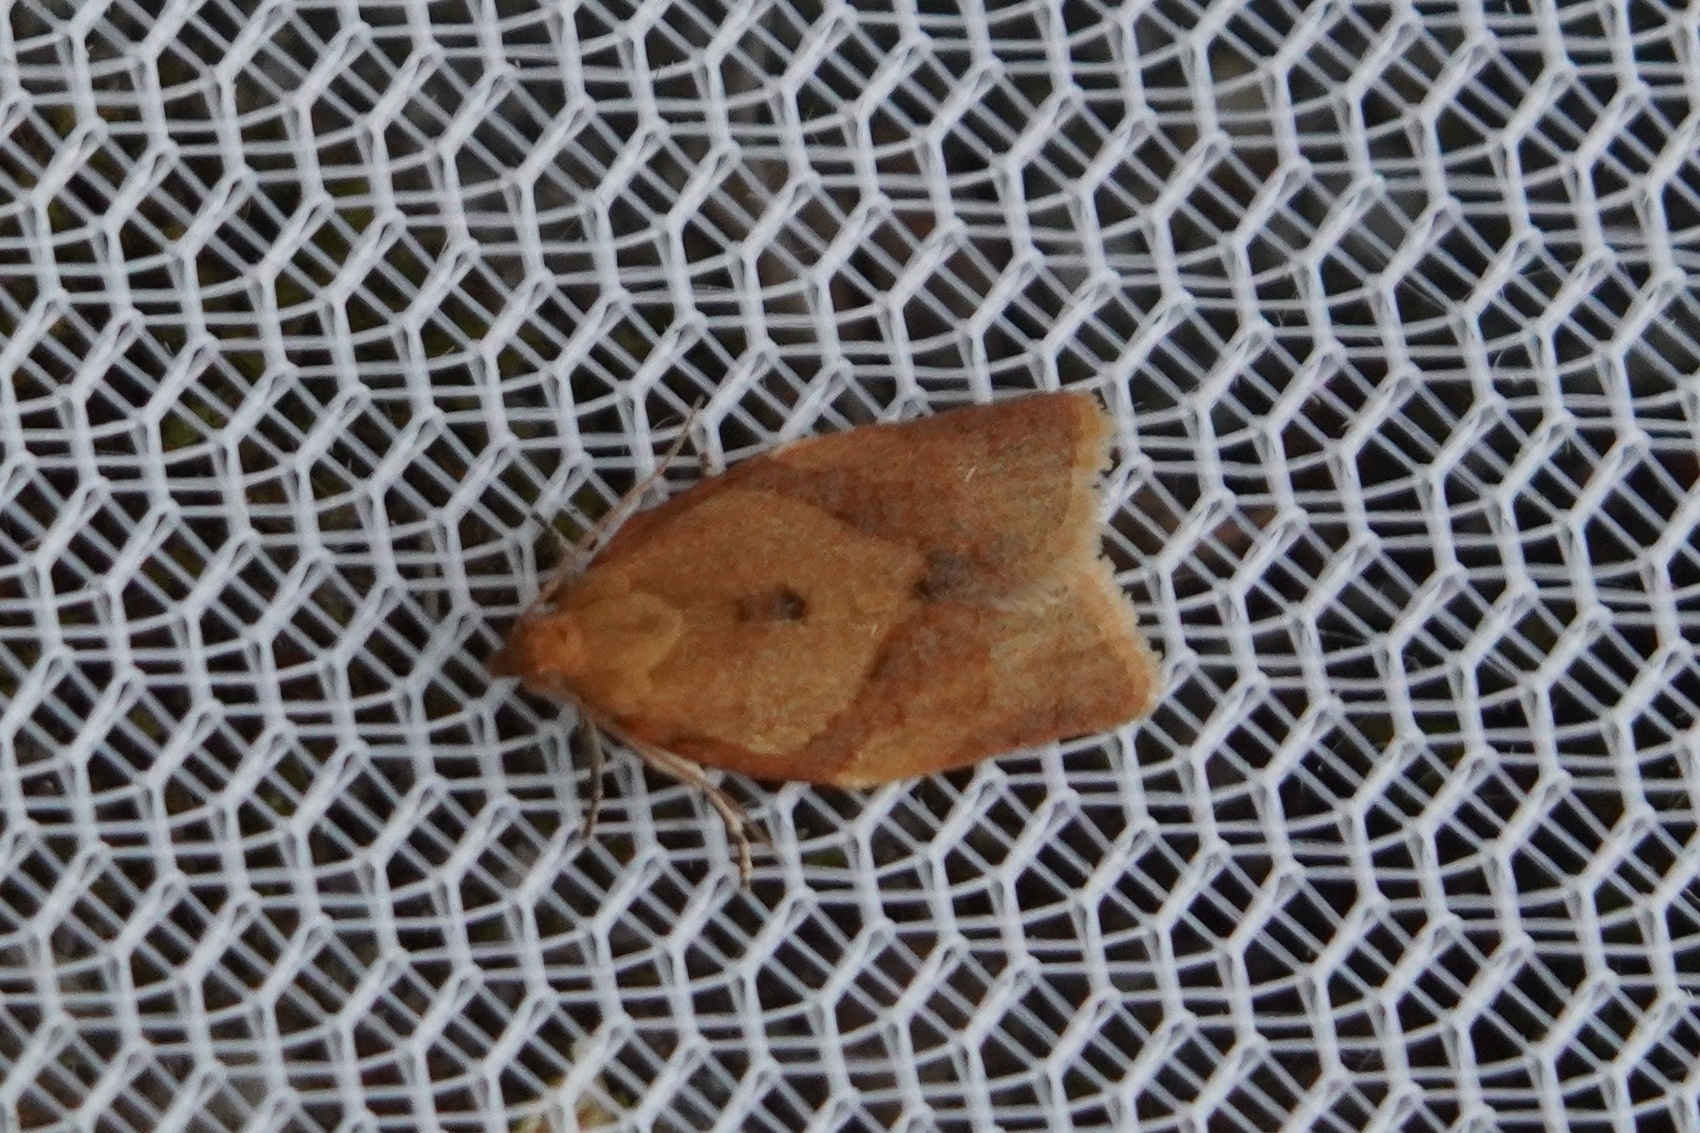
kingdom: Animalia
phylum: Arthropoda
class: Insecta
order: Lepidoptera
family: Tortricidae
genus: Clepsis
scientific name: Clepsis consimilana
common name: Privet tortrix
